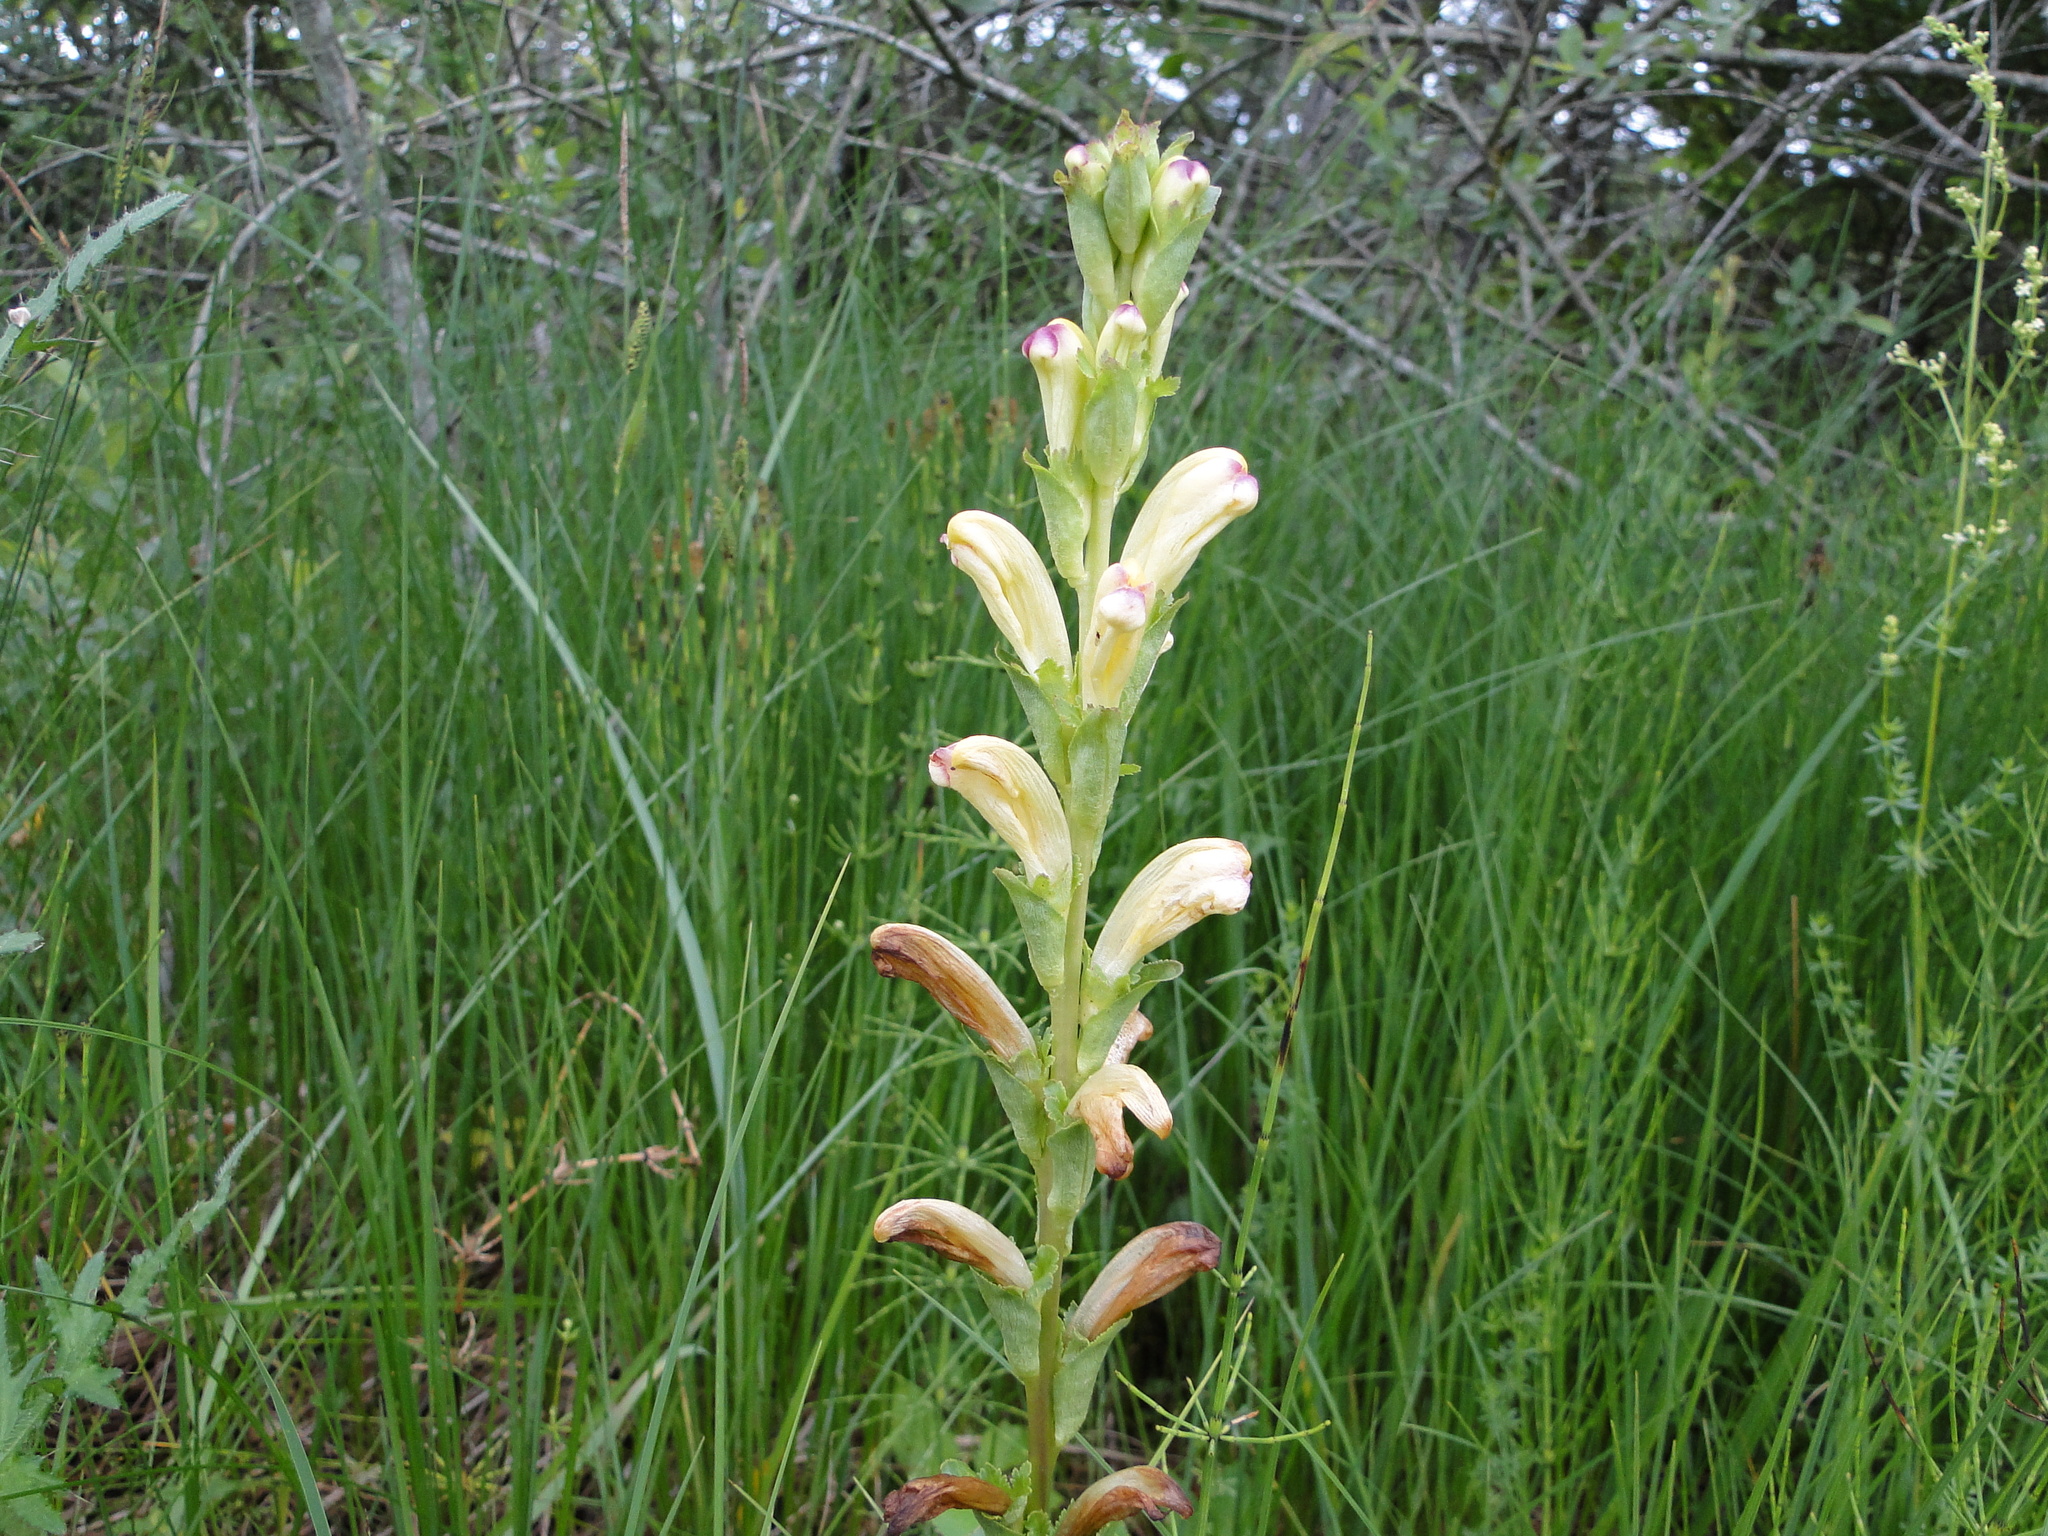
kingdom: Plantae
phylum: Tracheophyta
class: Magnoliopsida
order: Lamiales
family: Orobanchaceae
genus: Pedicularis
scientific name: Pedicularis sceptrum-carolinum
